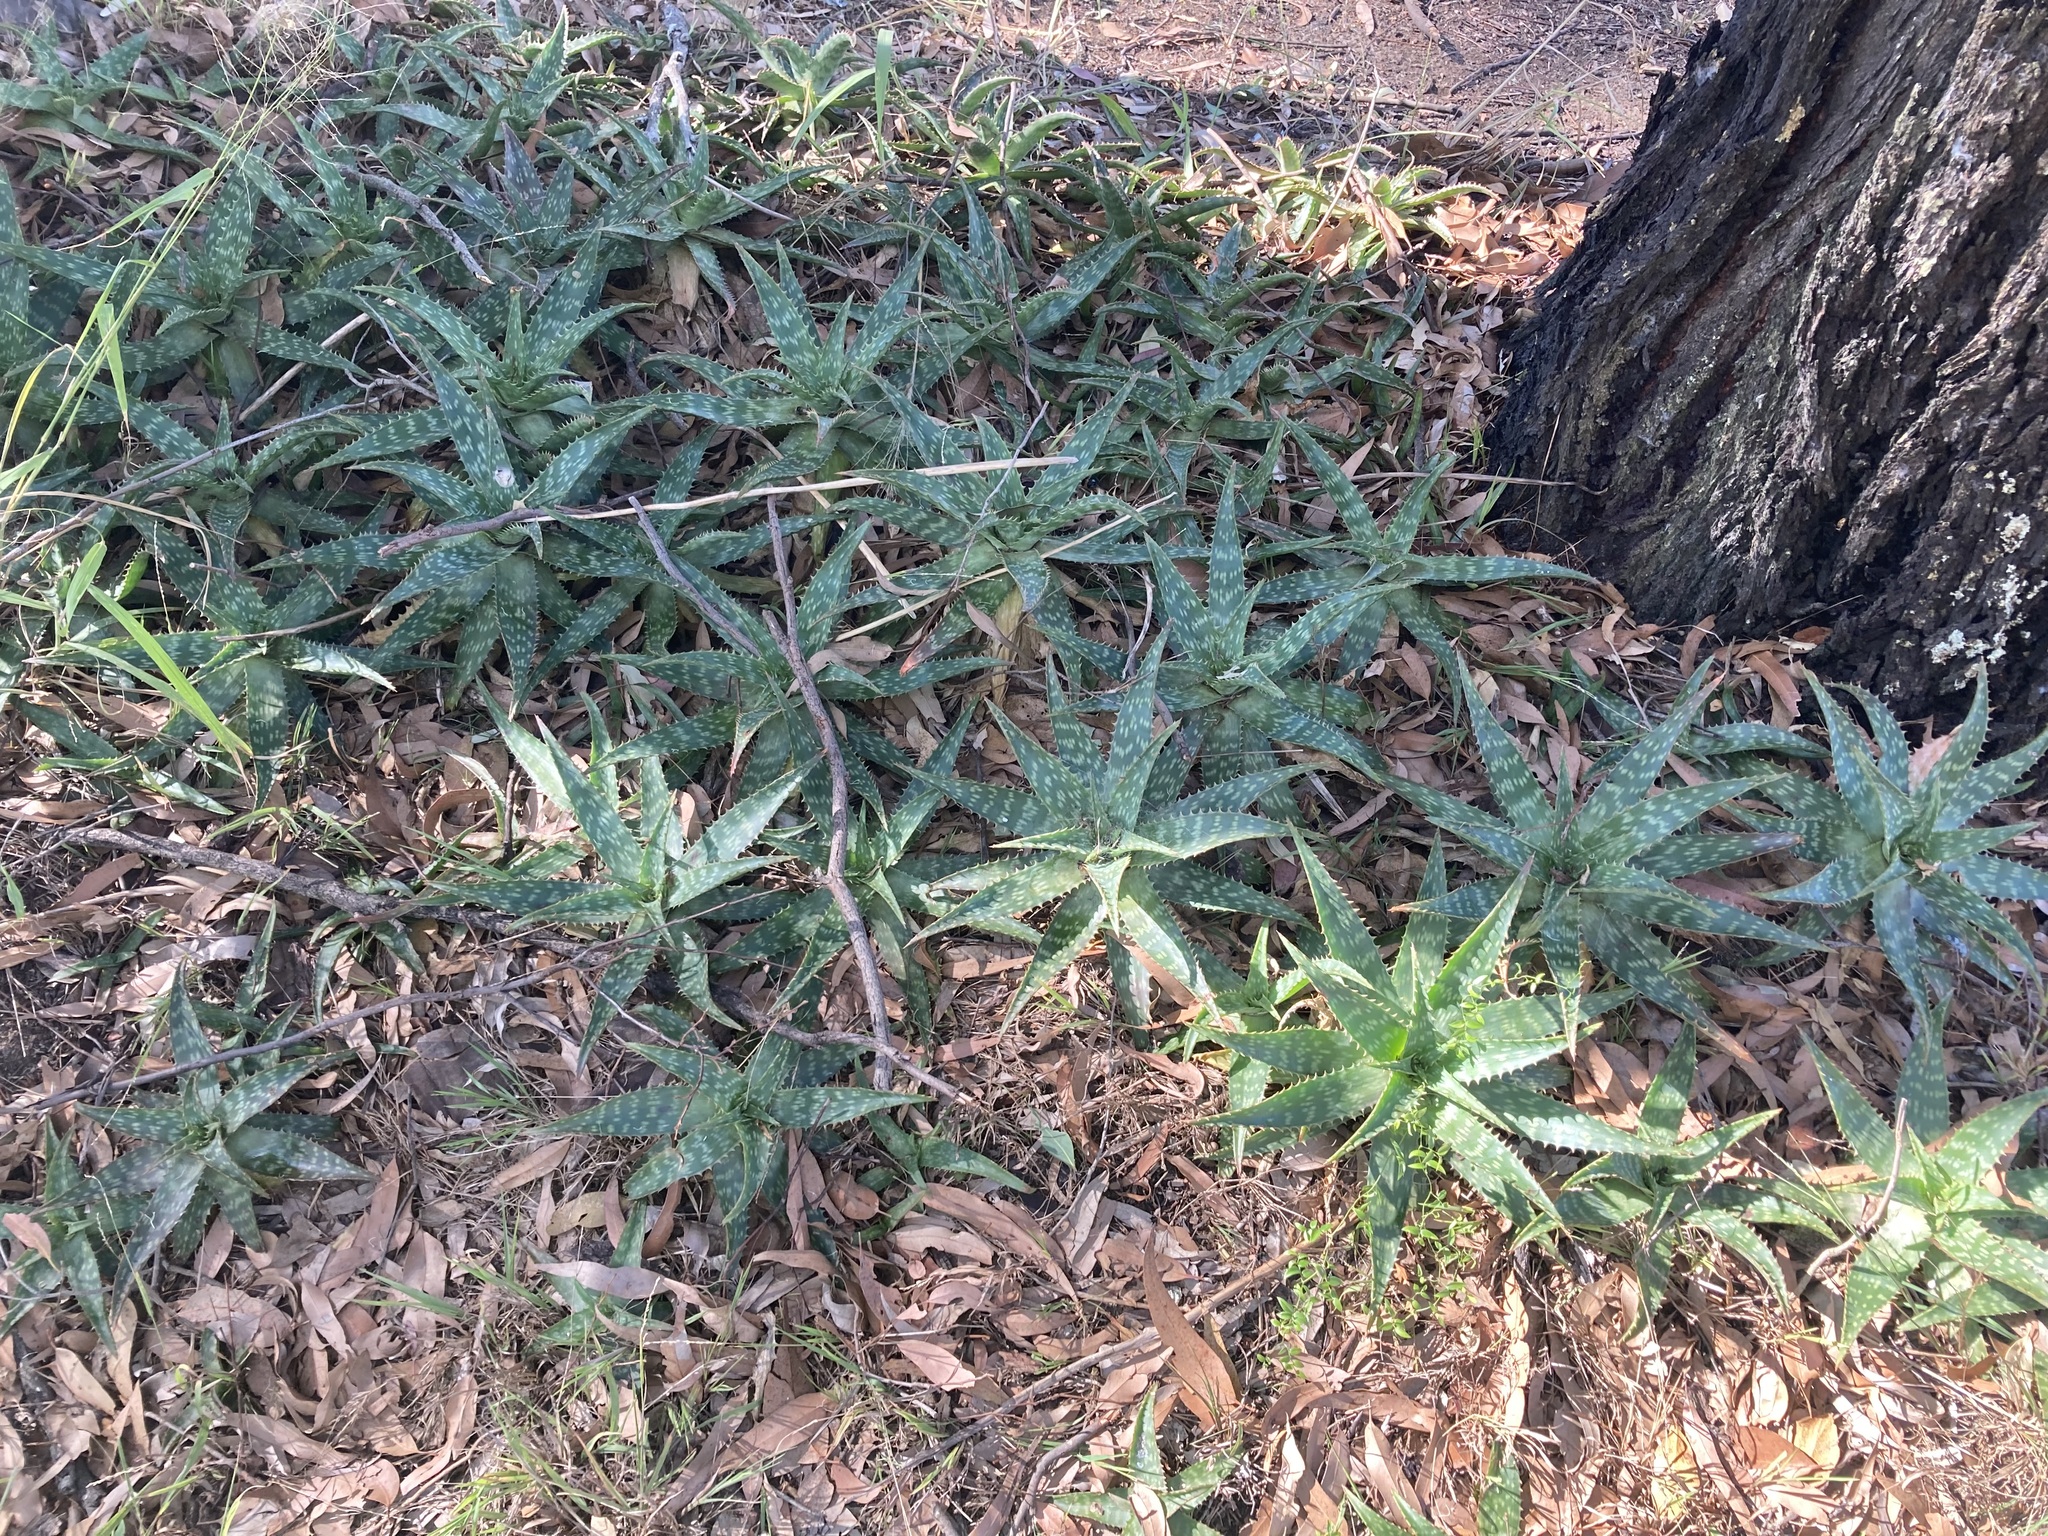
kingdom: Plantae
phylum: Tracheophyta
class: Liliopsida
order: Asparagales
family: Asphodelaceae
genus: Aloe
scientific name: Aloe maculata
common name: Broadleaf aloe
